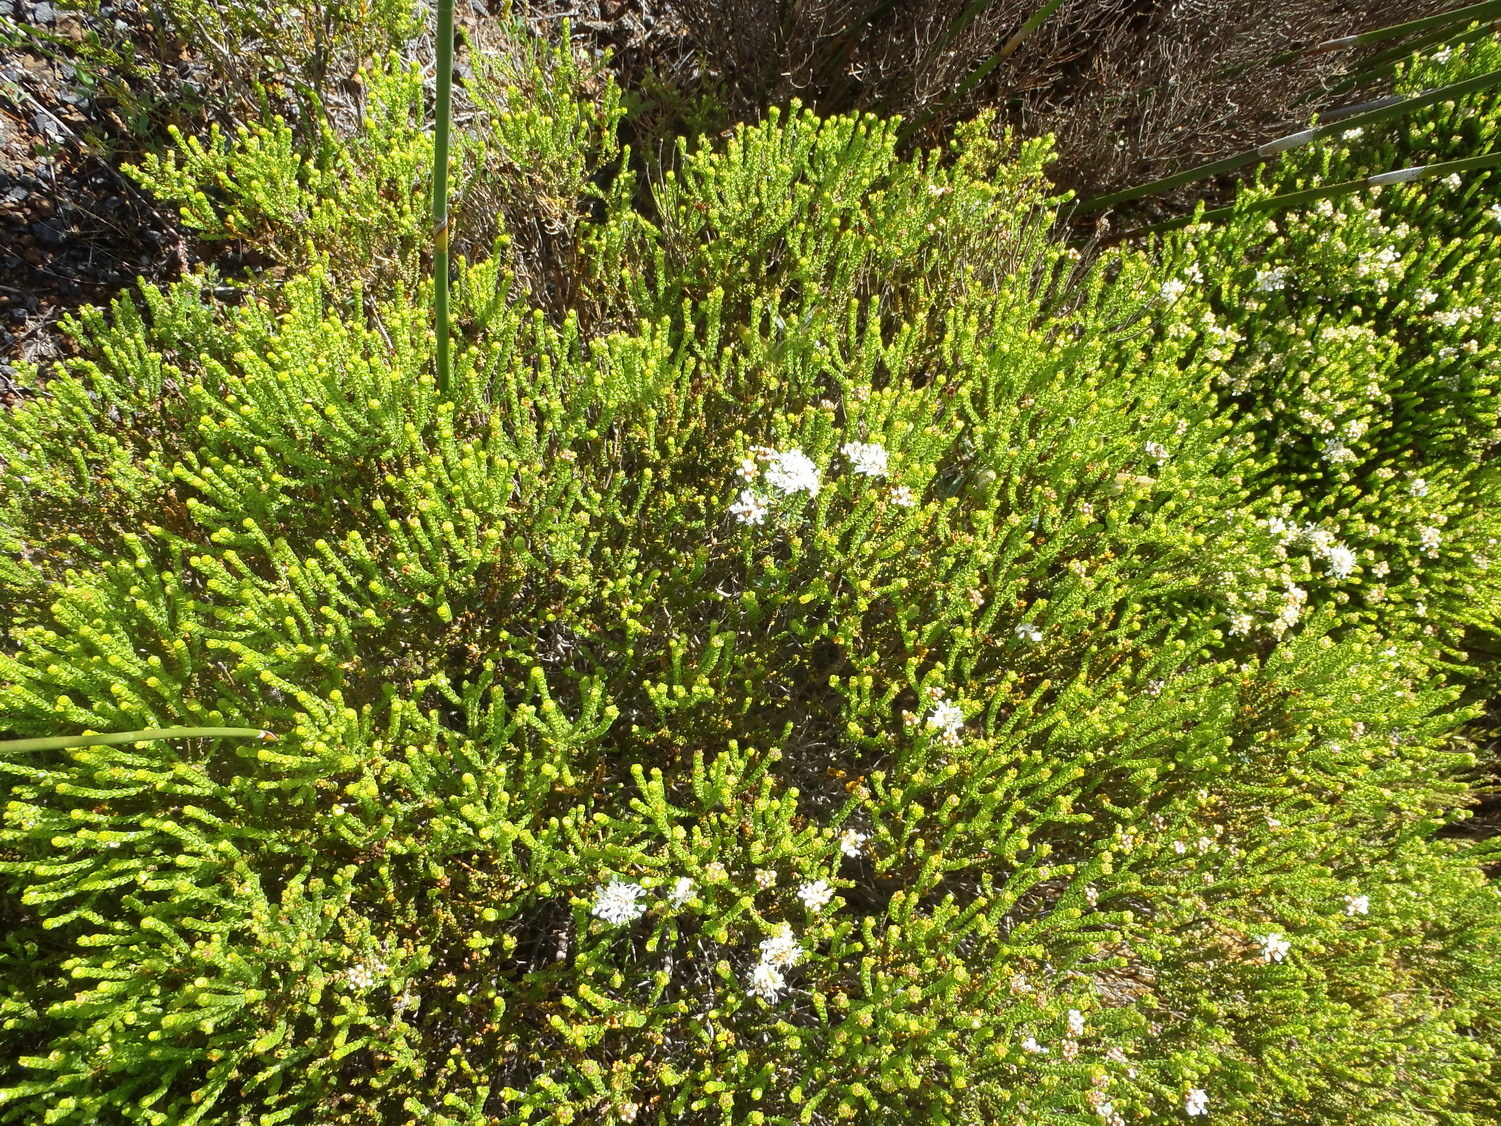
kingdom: Plantae
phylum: Tracheophyta
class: Magnoliopsida
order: Sapindales
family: Rutaceae
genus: Agathosma
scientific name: Agathosma imbricata
